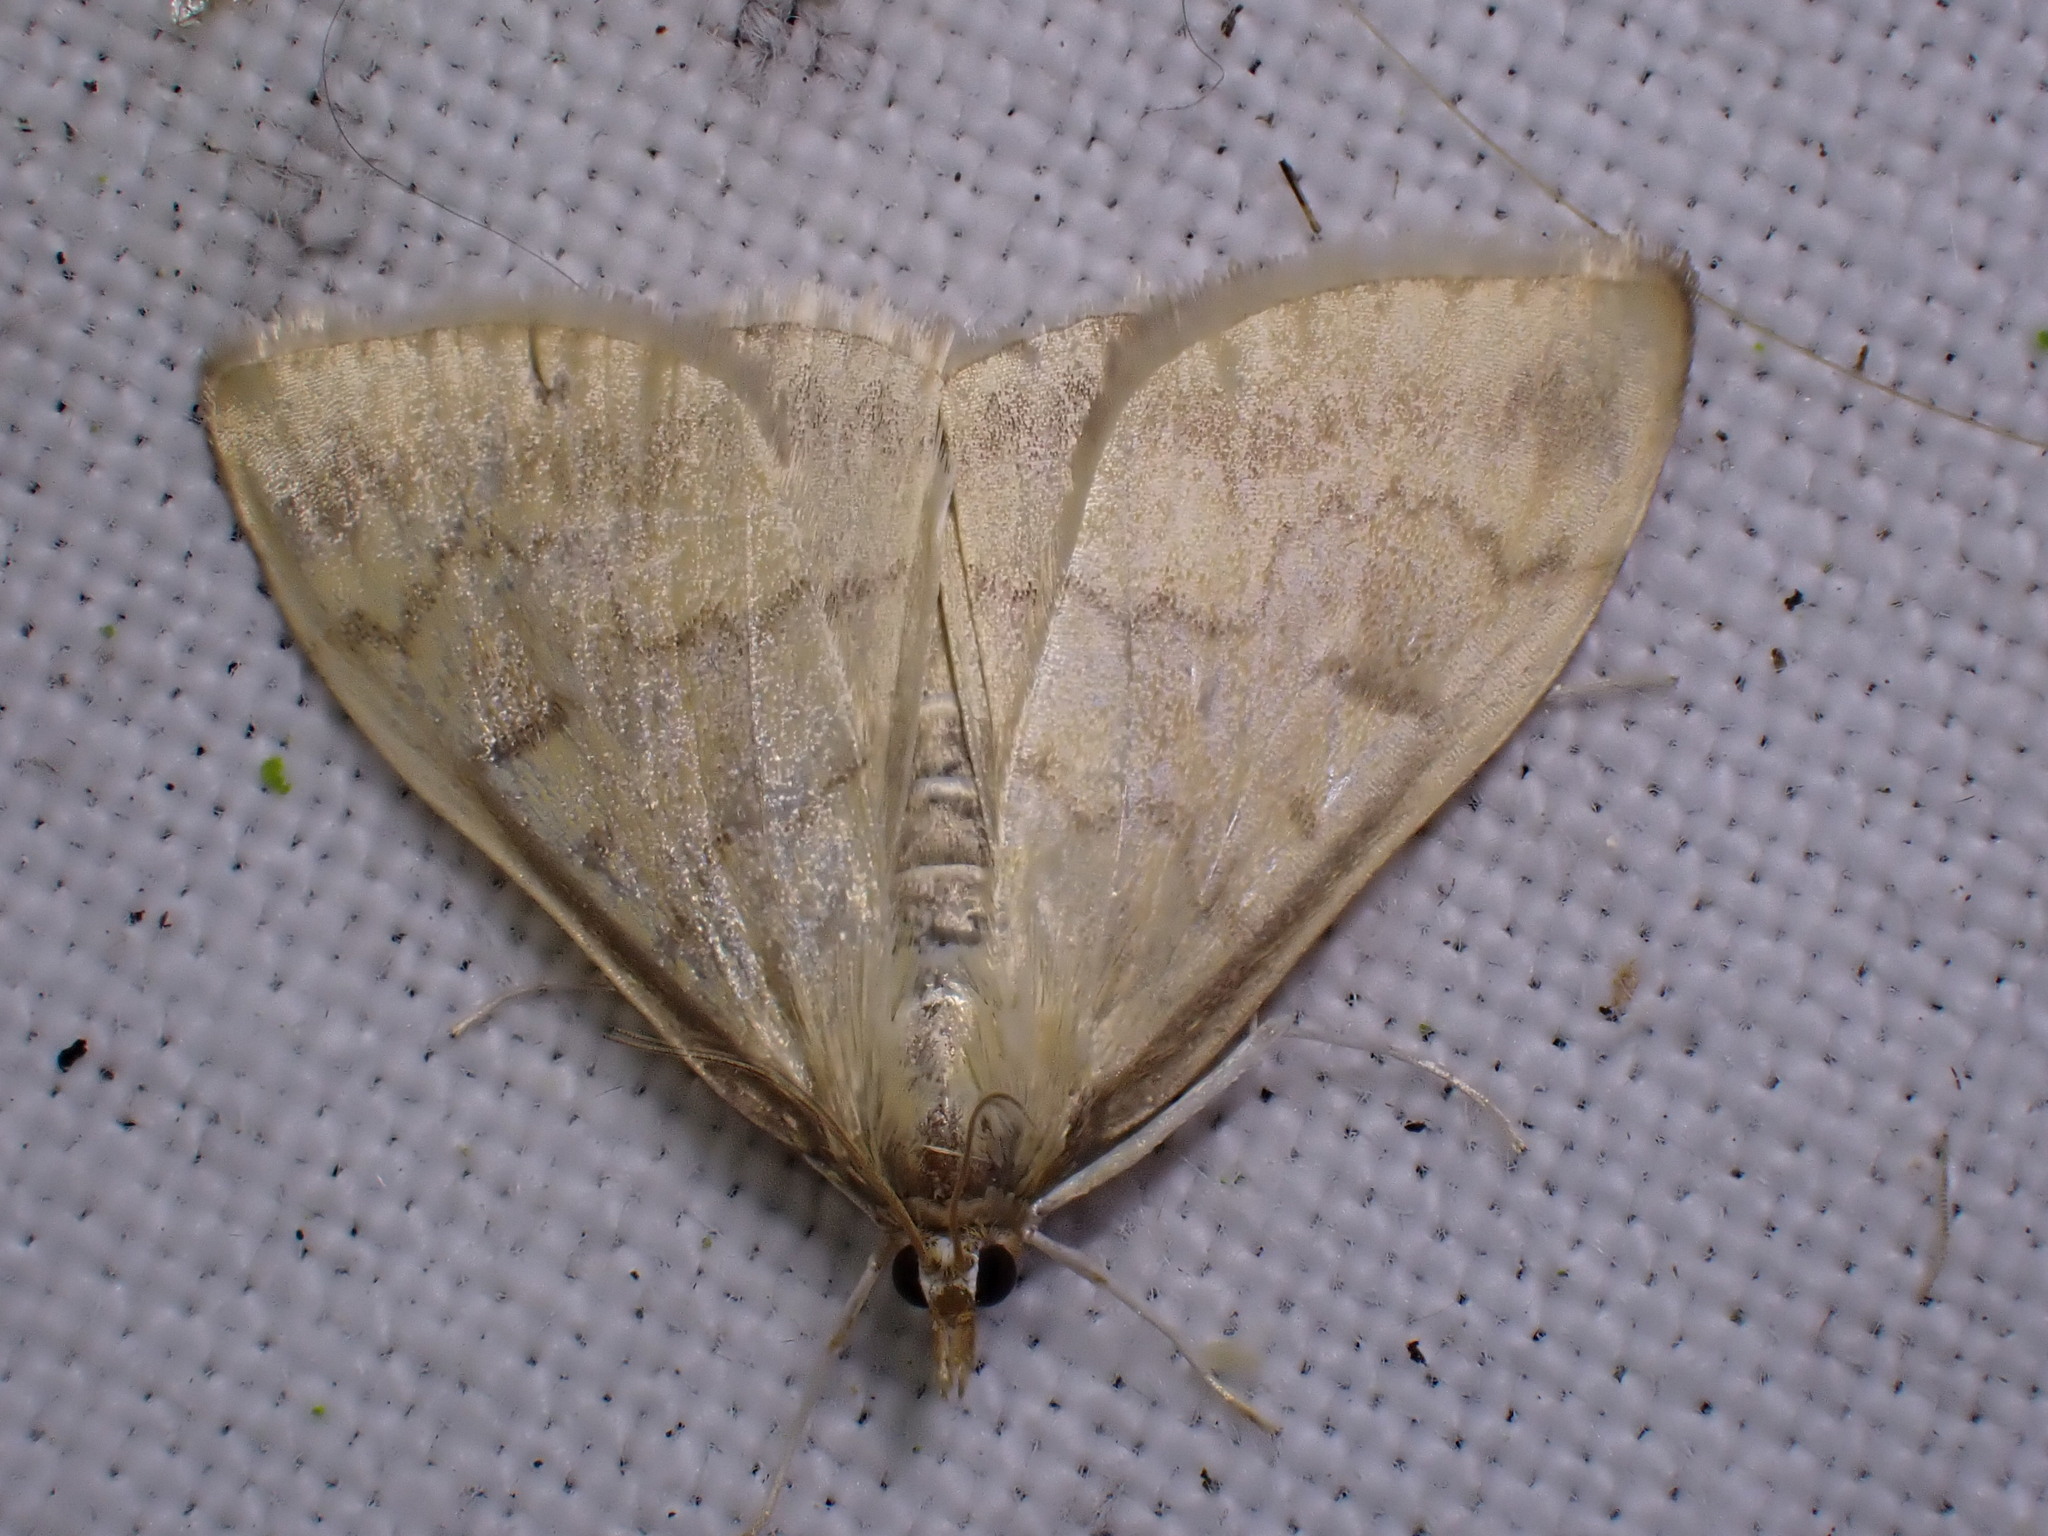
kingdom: Animalia
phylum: Arthropoda
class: Insecta
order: Lepidoptera
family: Crambidae
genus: Ostrinia
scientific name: Ostrinia nubilalis
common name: European corn borer
